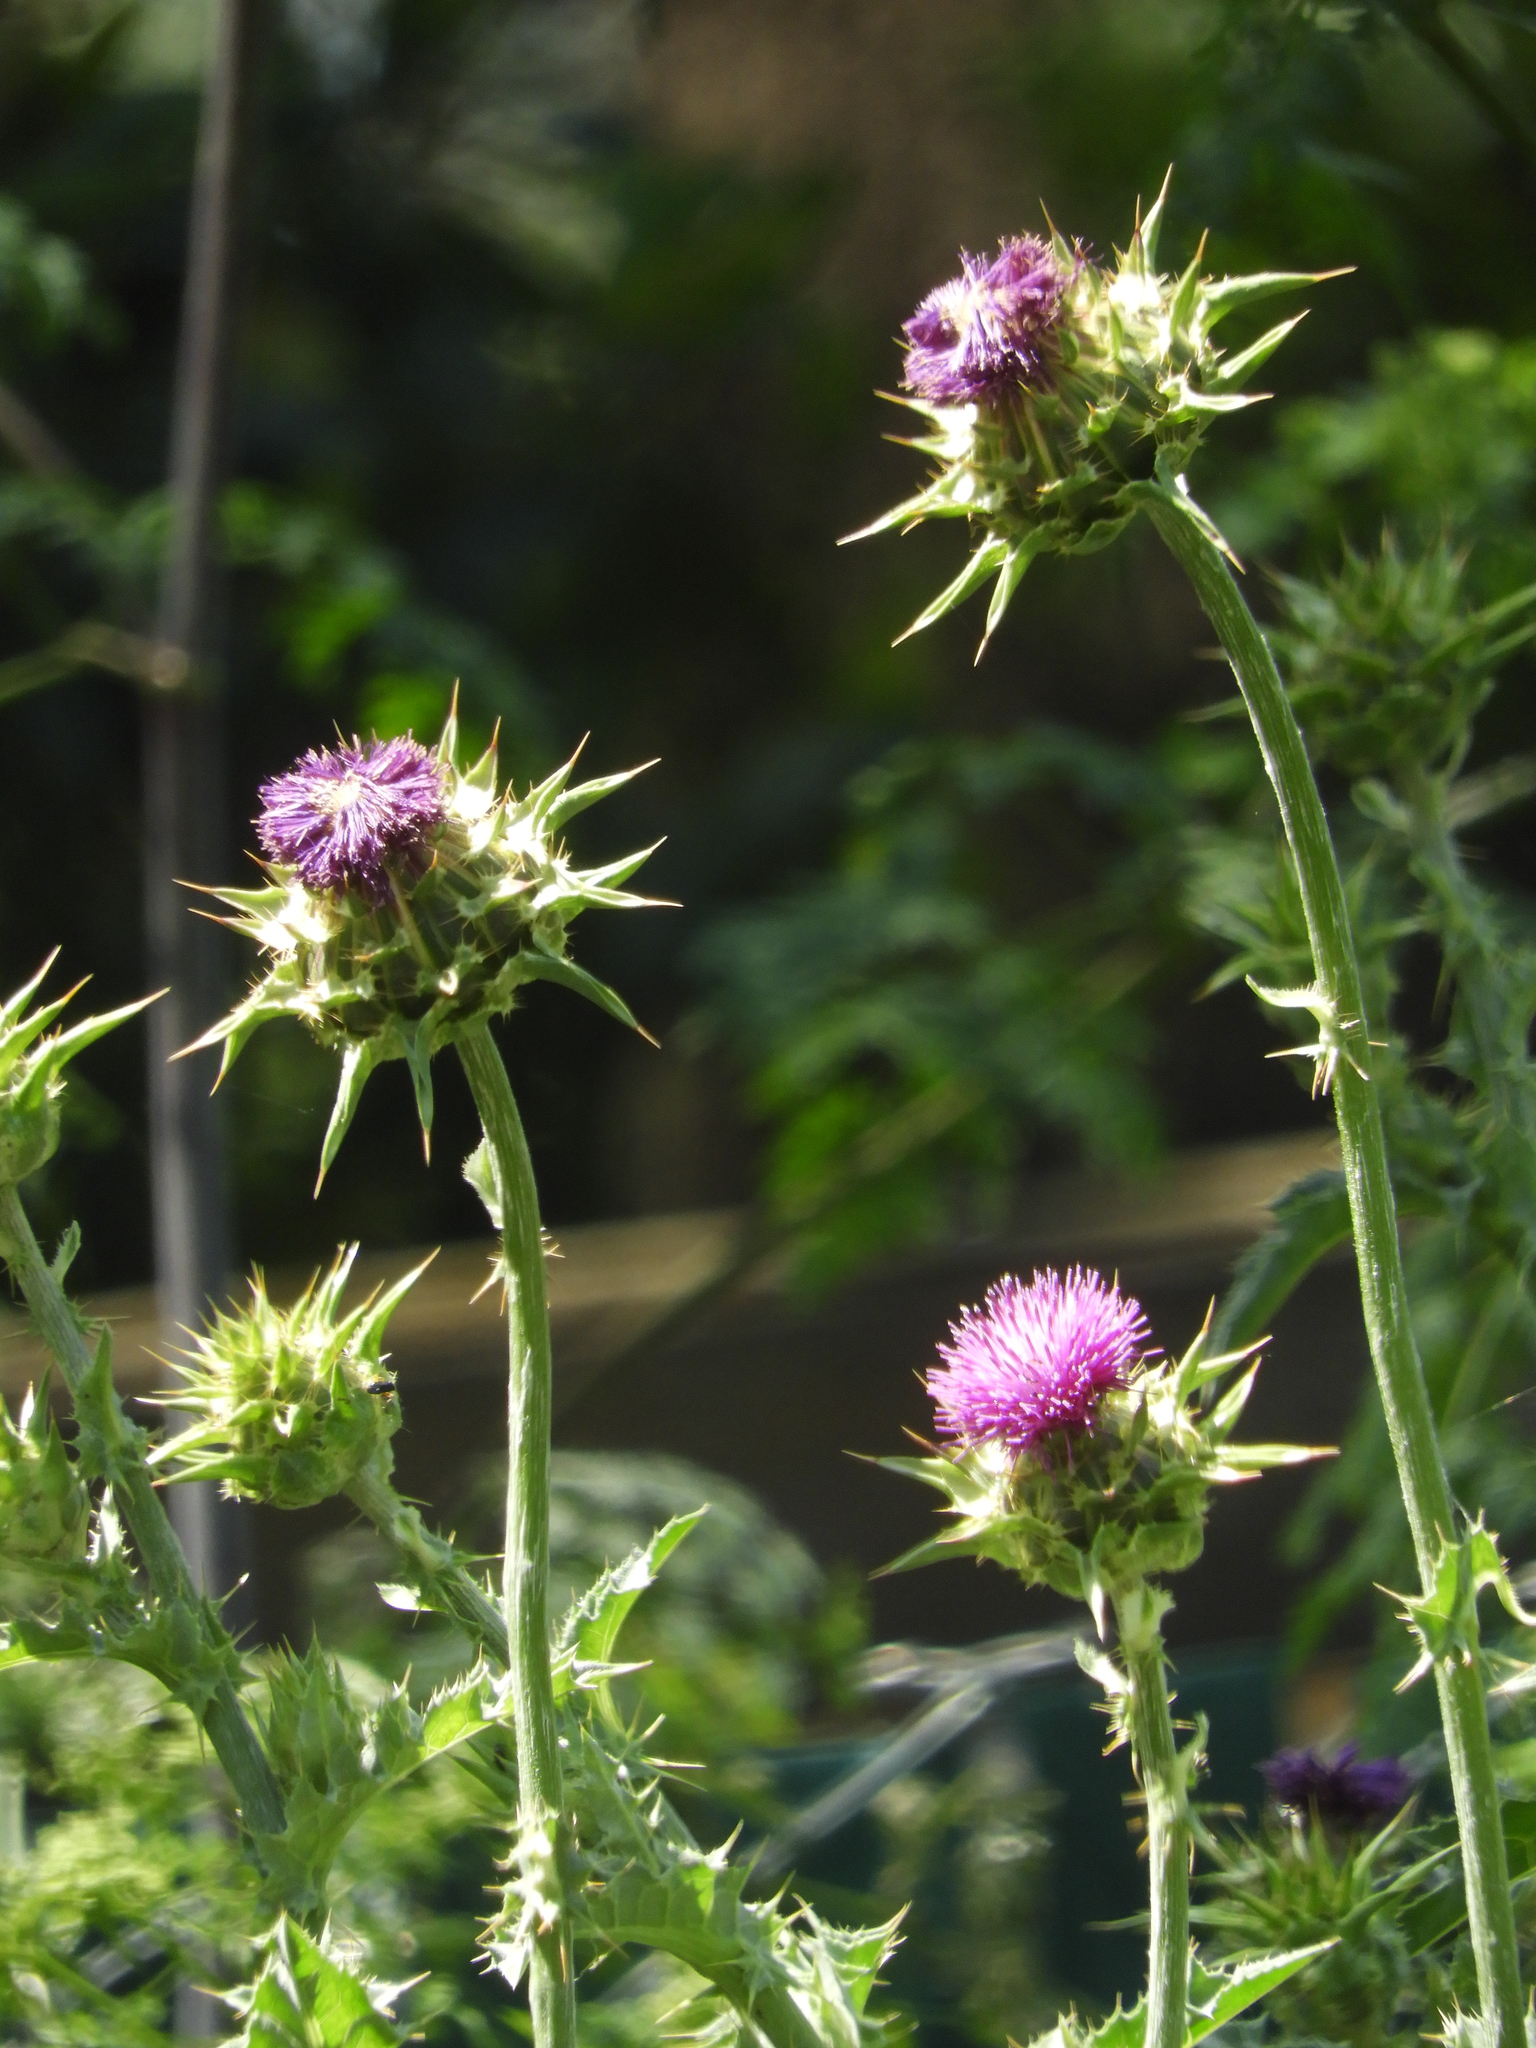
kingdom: Plantae
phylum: Tracheophyta
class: Magnoliopsida
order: Asterales
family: Asteraceae
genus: Silybum
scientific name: Silybum marianum
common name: Milk thistle
